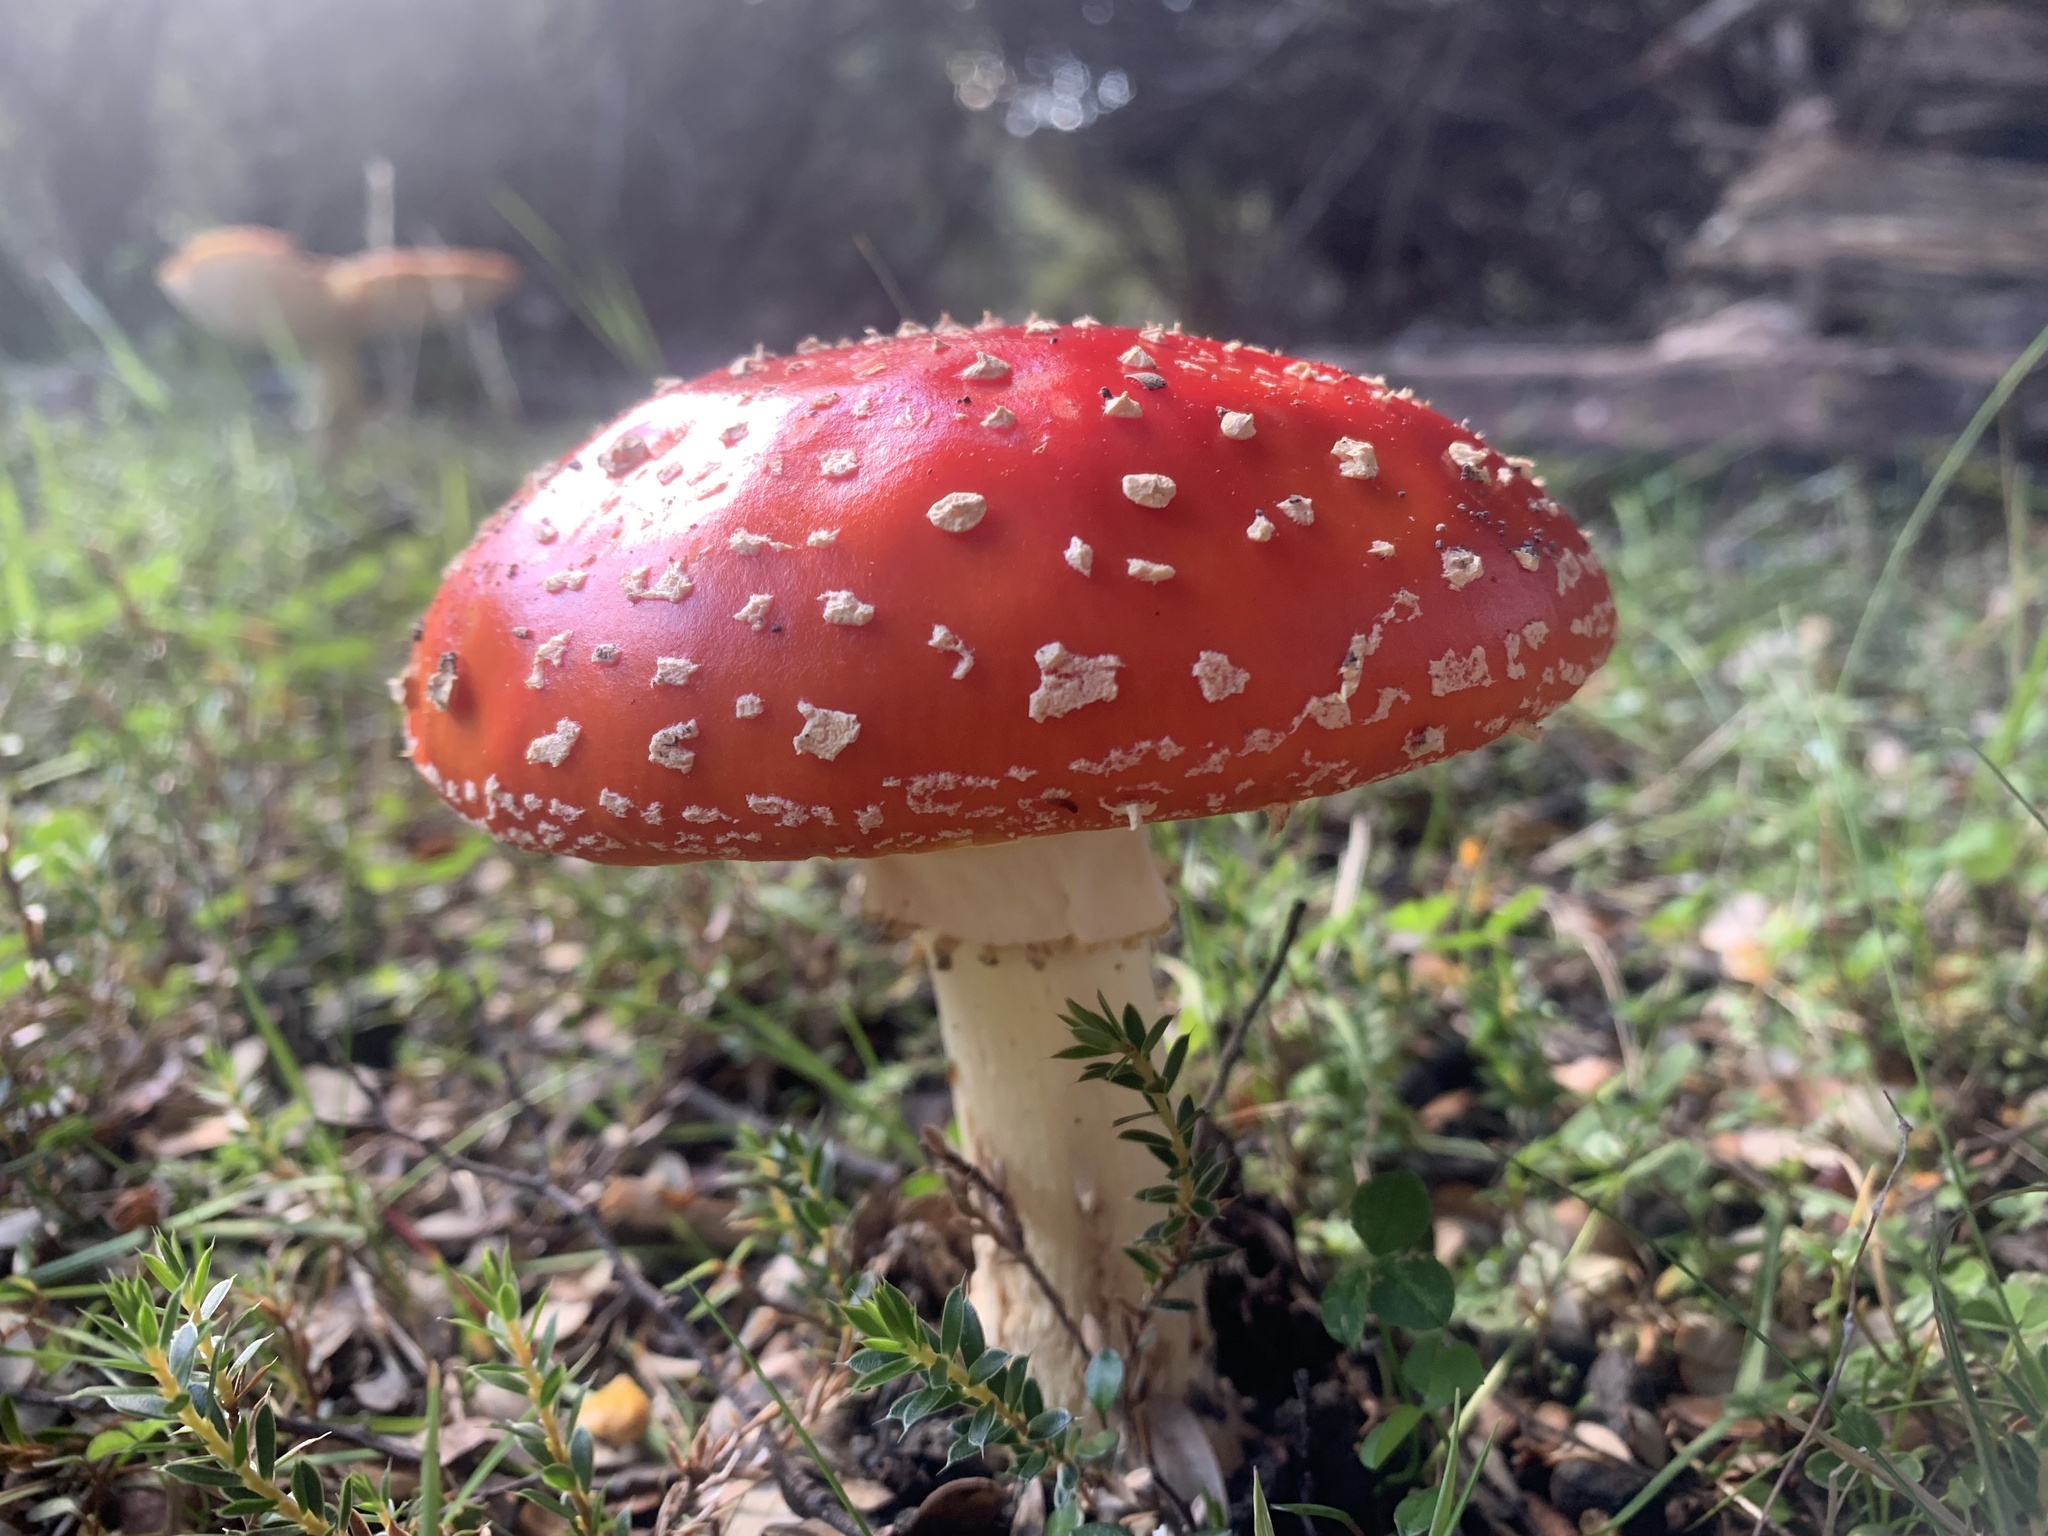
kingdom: Fungi
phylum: Basidiomycota
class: Agaricomycetes
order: Agaricales
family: Amanitaceae
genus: Amanita
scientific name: Amanita muscaria
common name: Fly agaric
